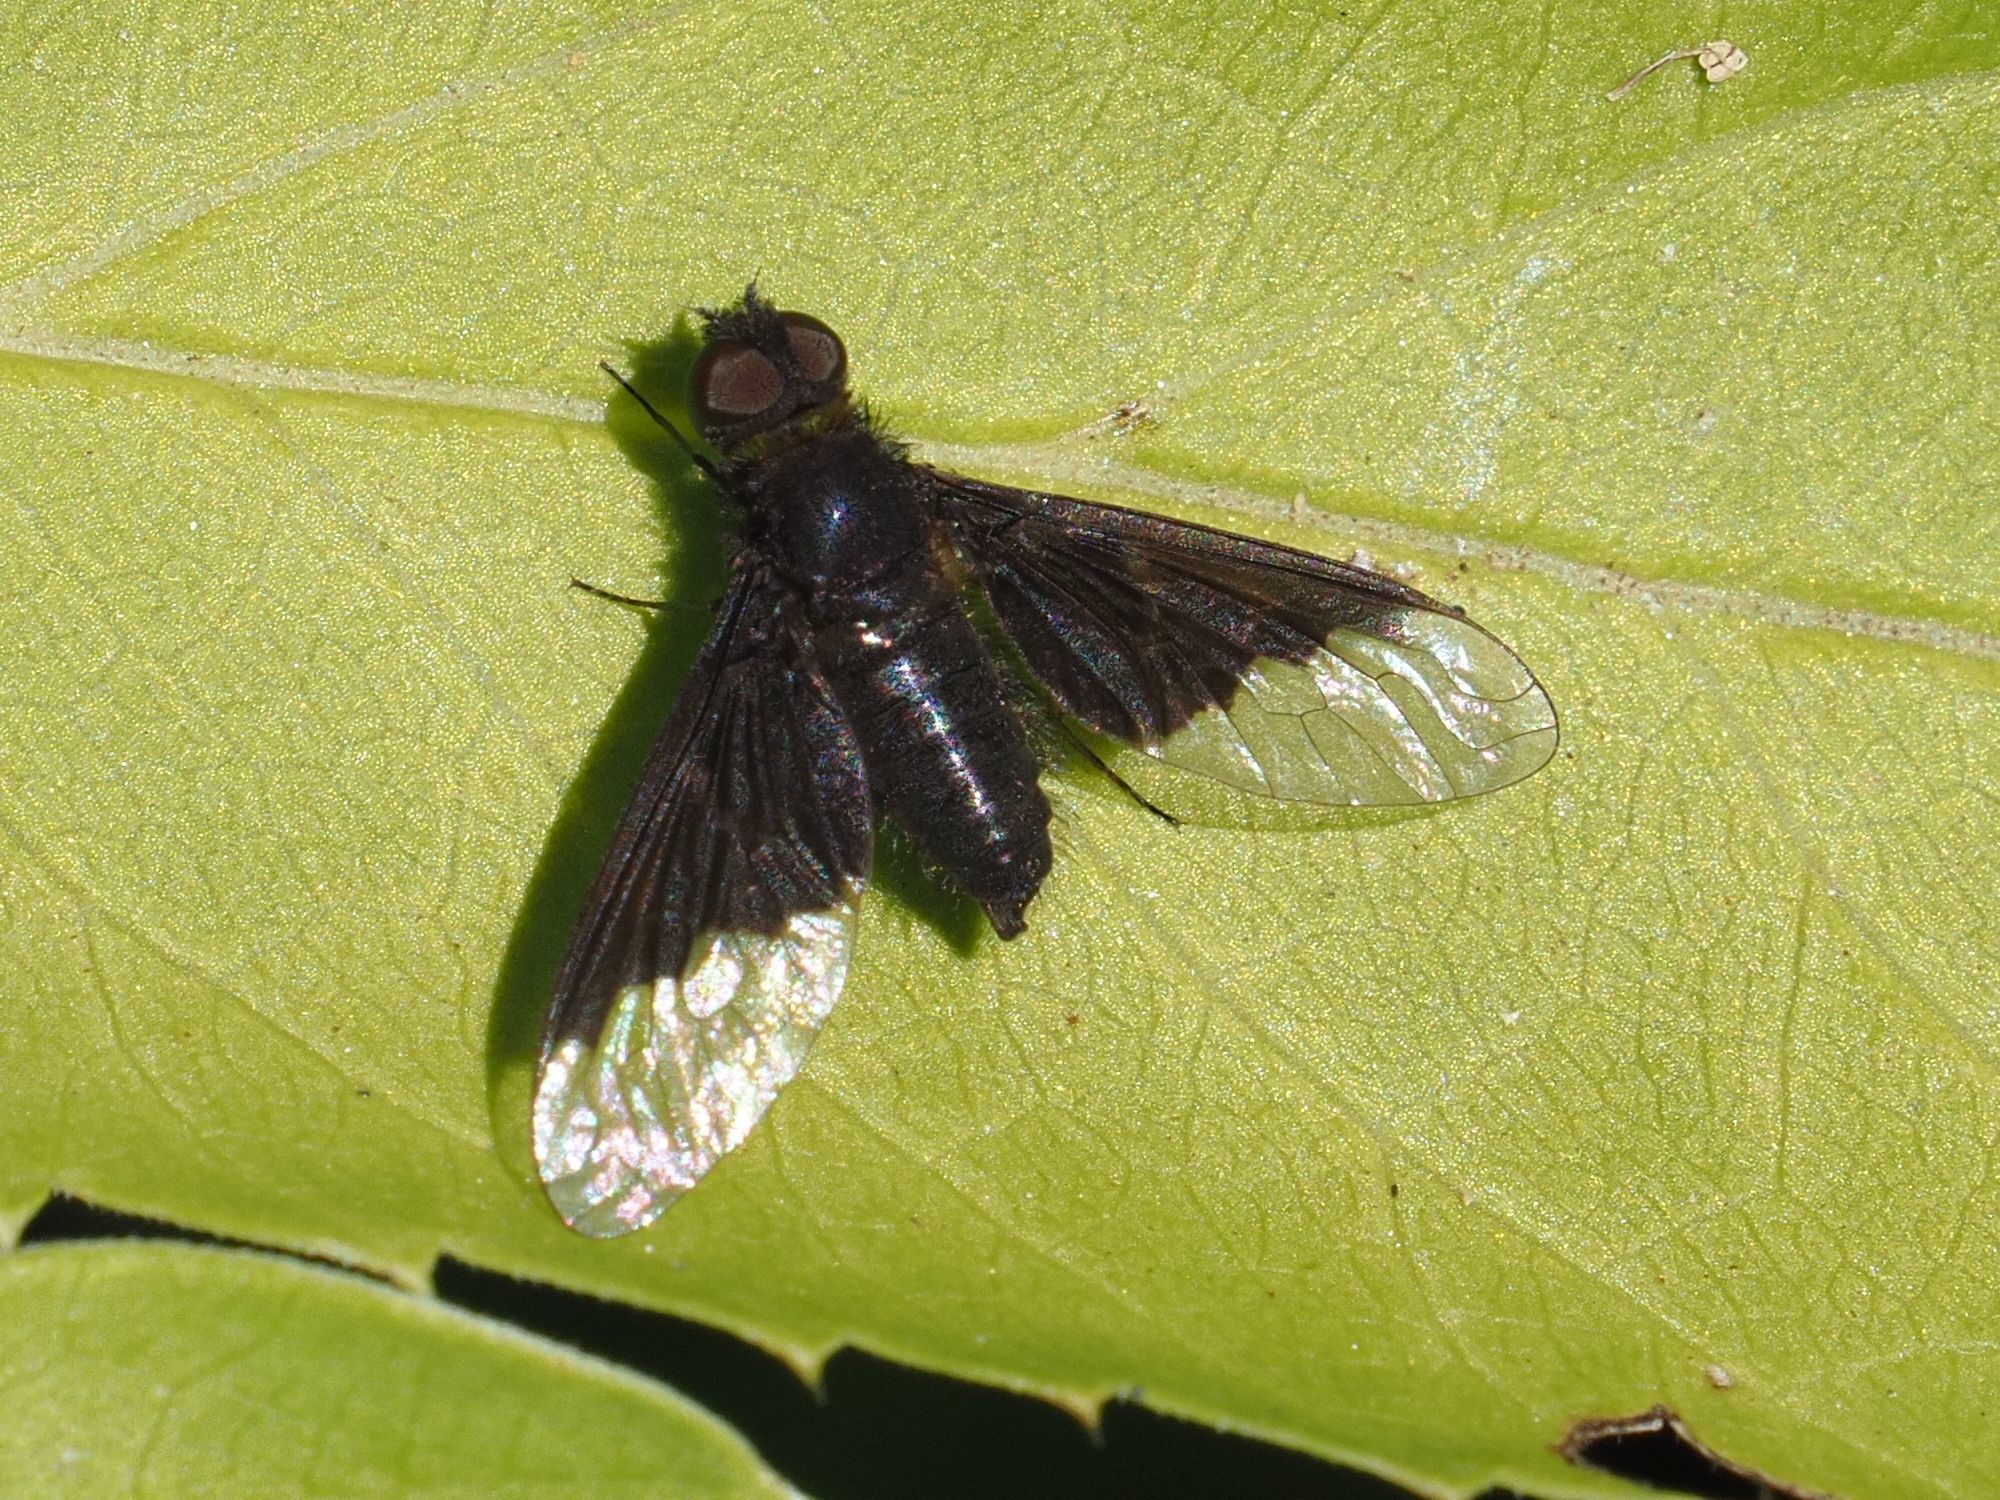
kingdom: Animalia
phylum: Arthropoda
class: Insecta
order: Diptera
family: Bombyliidae
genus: Hemipenthes
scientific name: Hemipenthes morio
